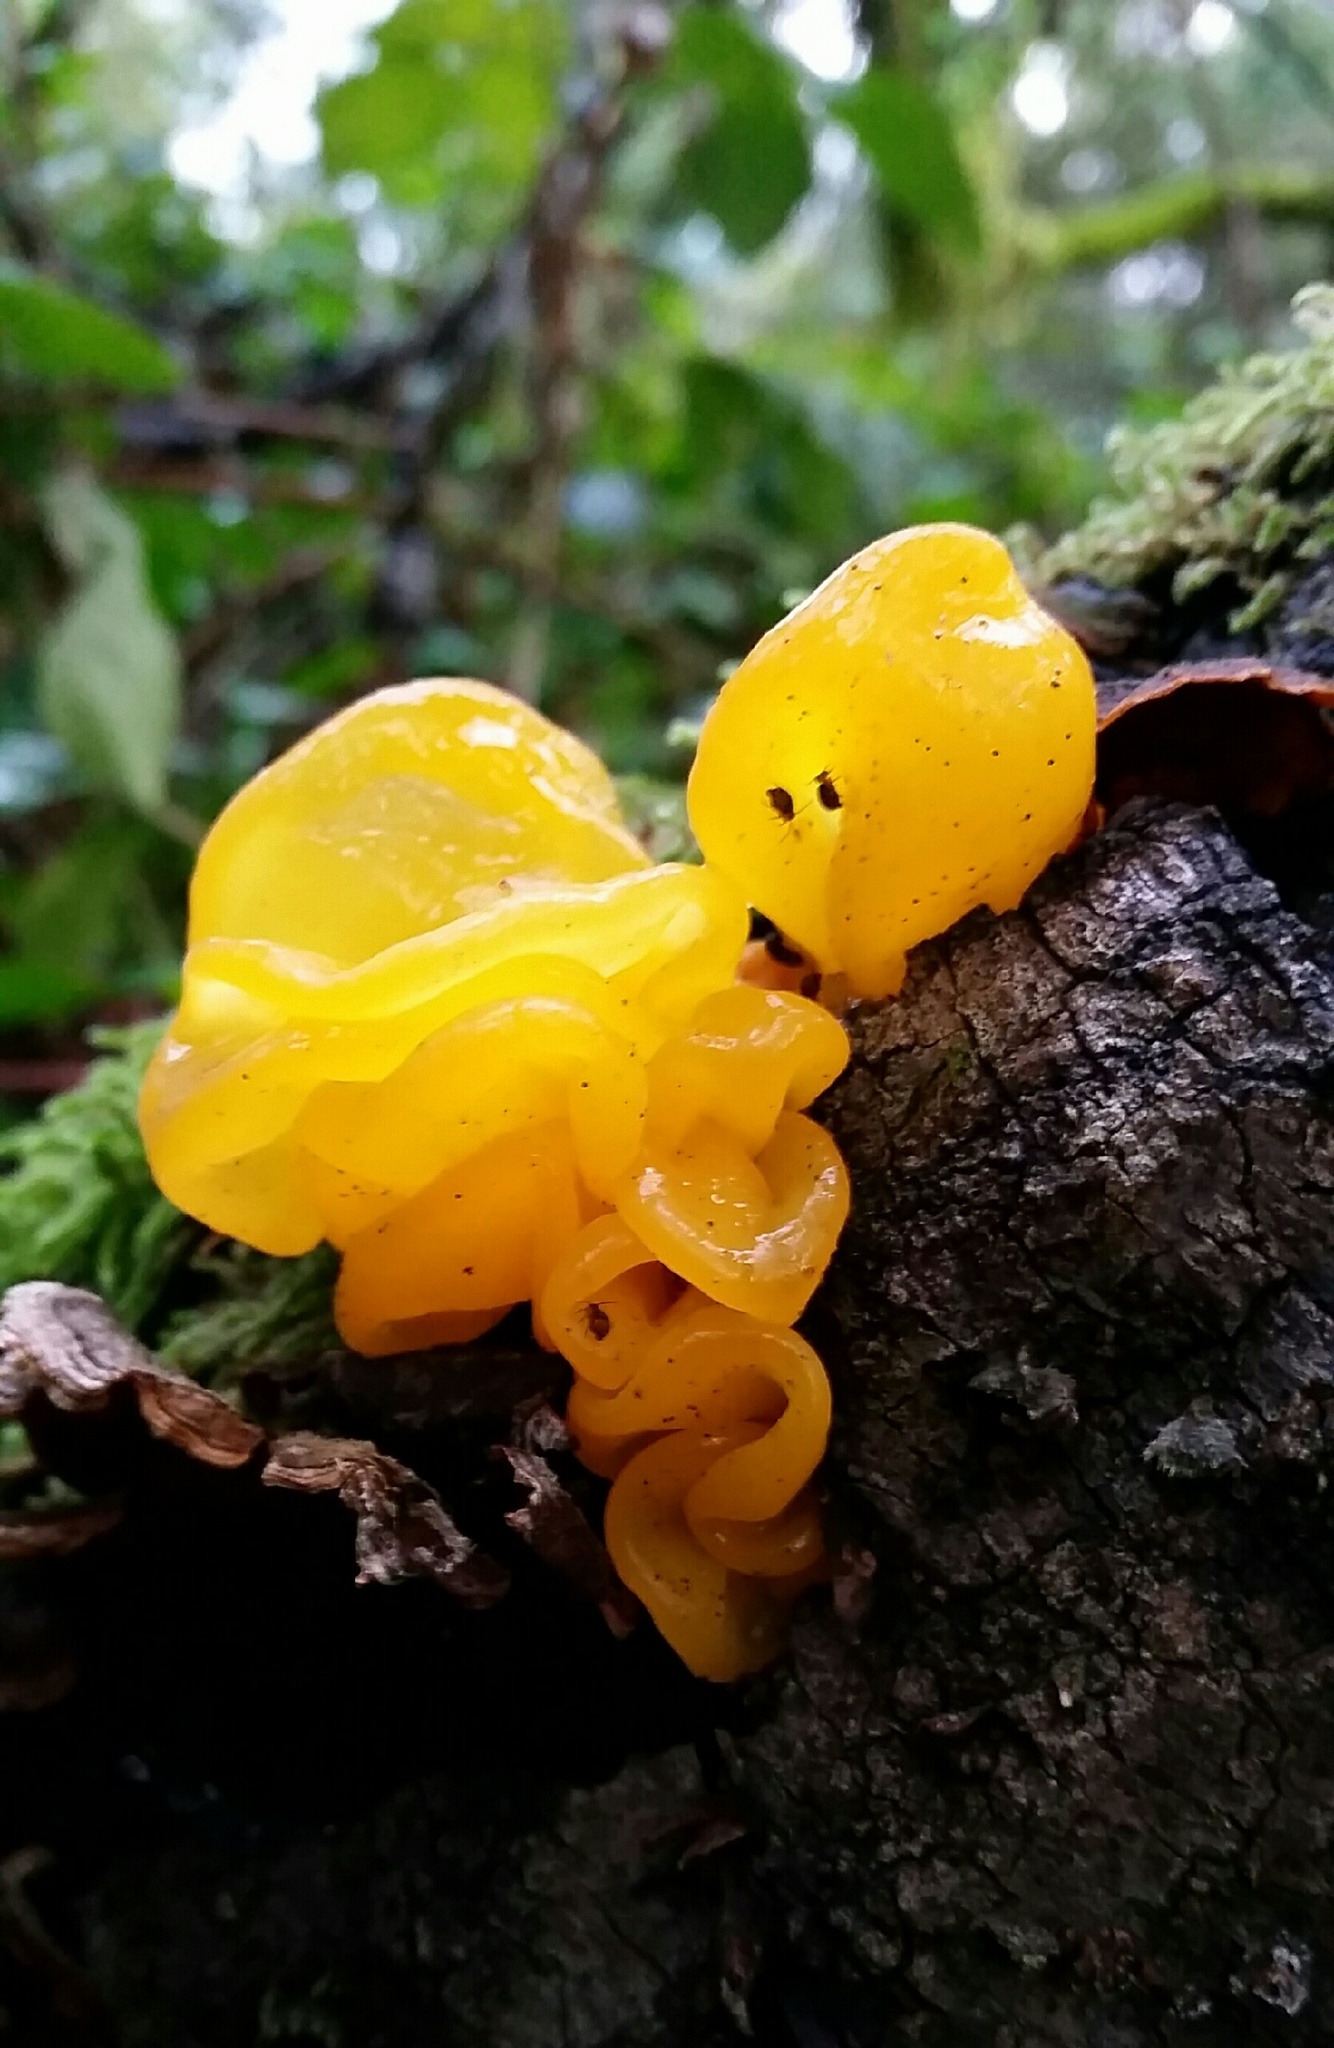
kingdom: Fungi
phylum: Basidiomycota
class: Tremellomycetes
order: Tremellales
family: Naemateliaceae
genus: Naematelia
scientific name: Naematelia aurantia
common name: Golden ear
